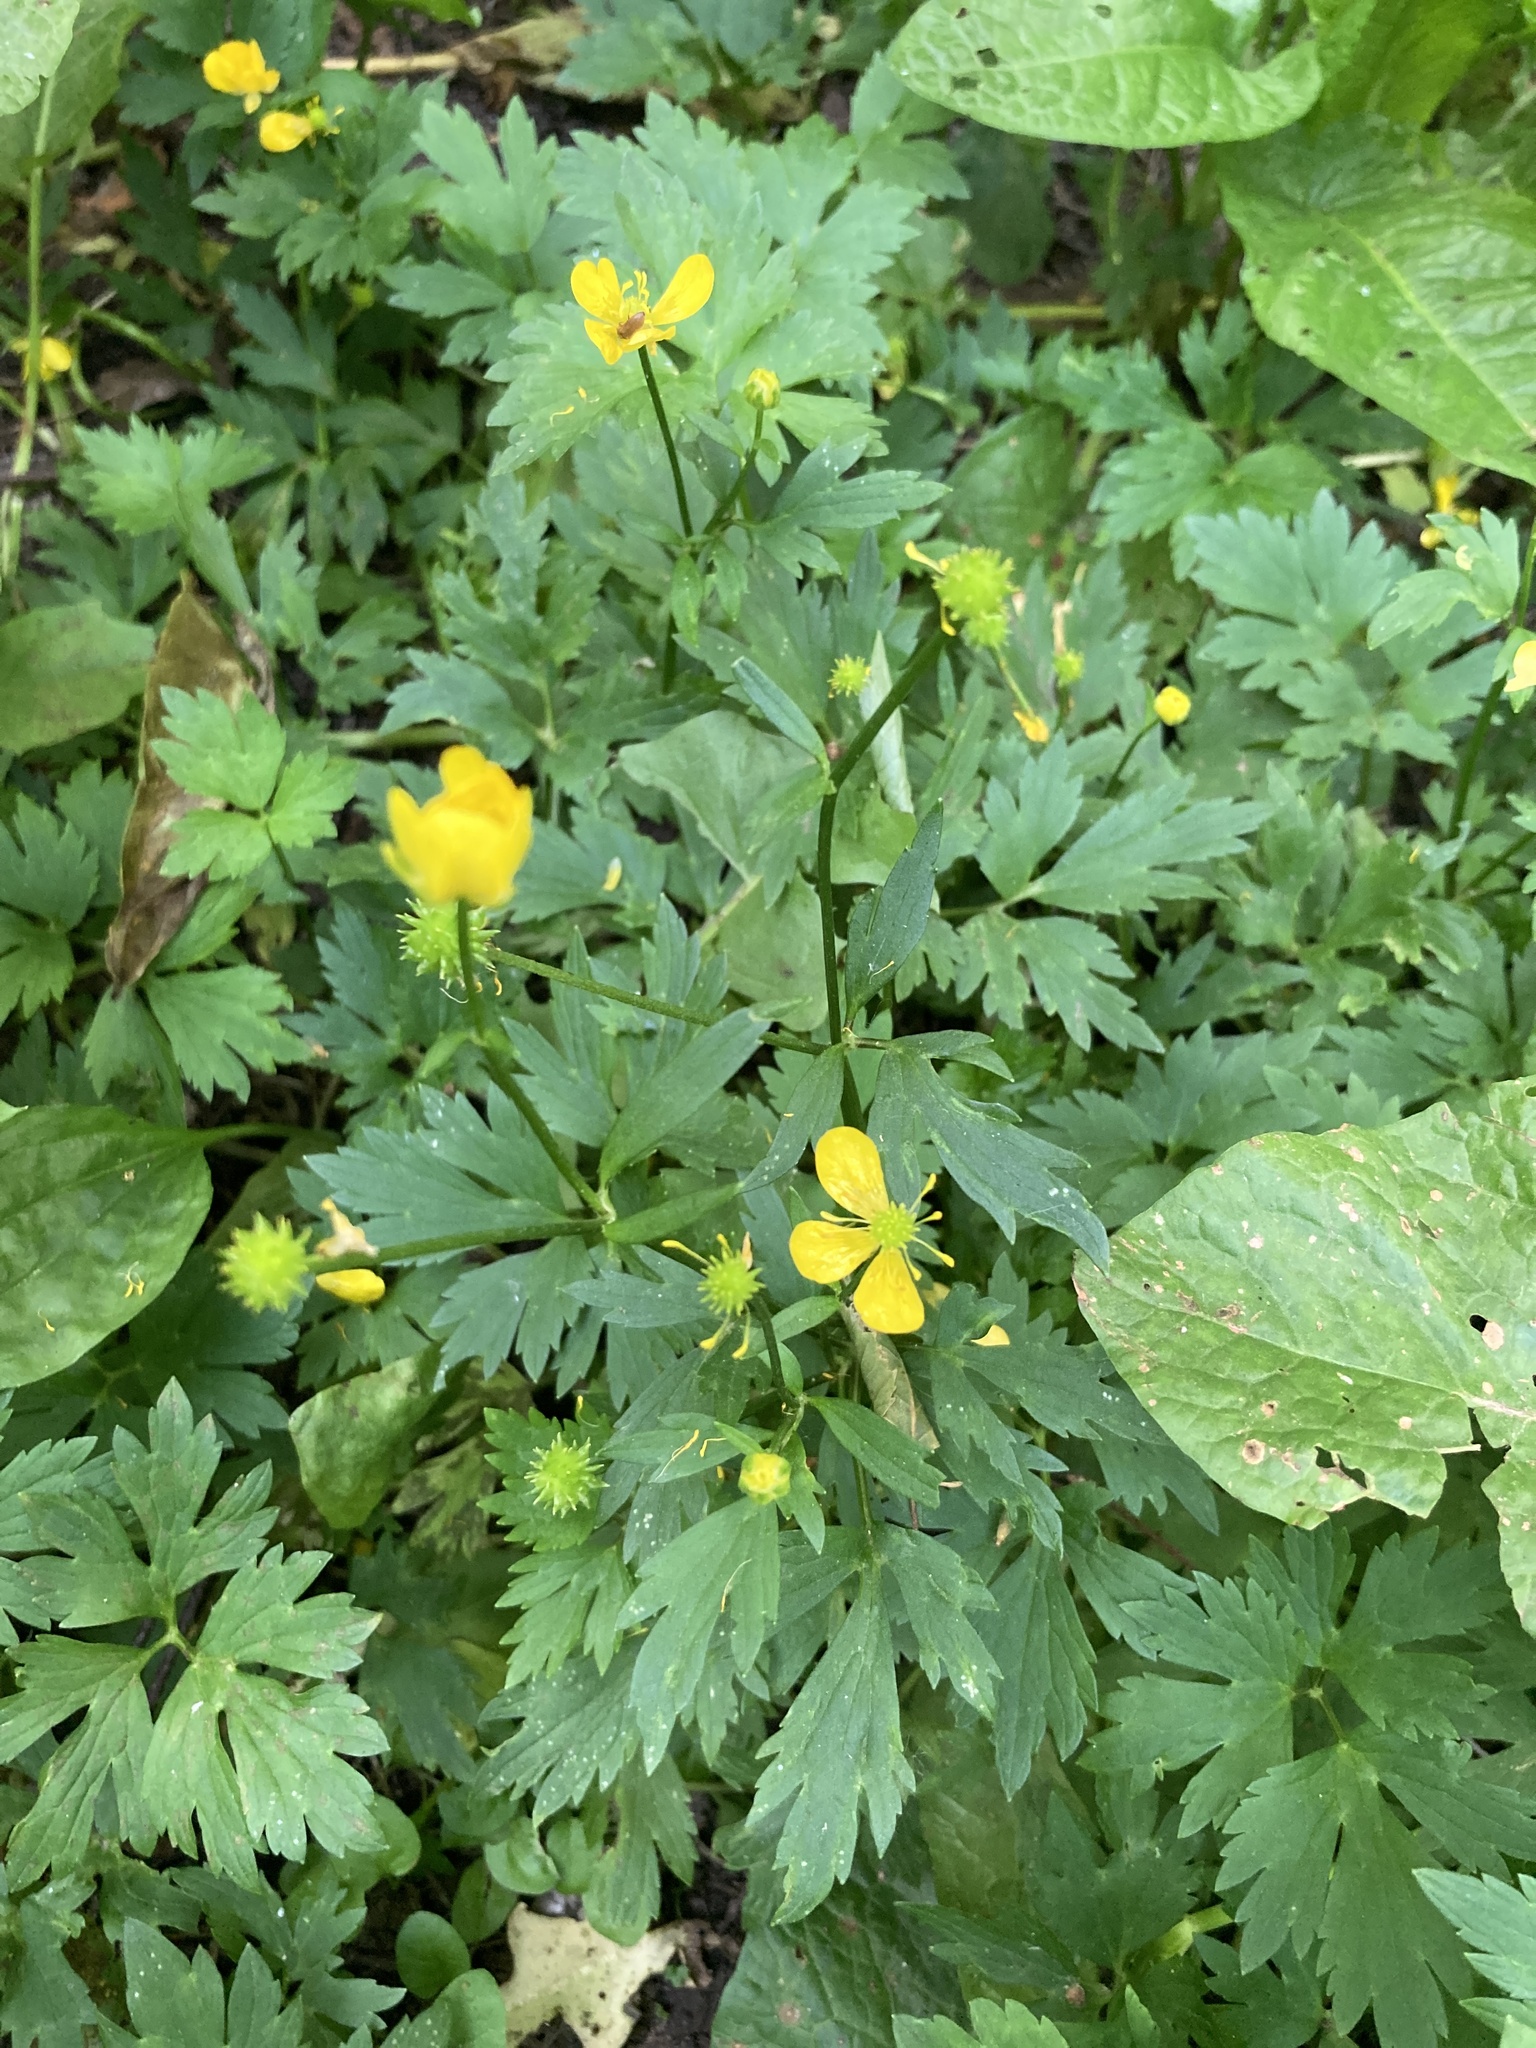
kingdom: Plantae
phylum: Tracheophyta
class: Magnoliopsida
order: Ranunculales
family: Ranunculaceae
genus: Ranunculus
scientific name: Ranunculus repens
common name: Creeping buttercup
